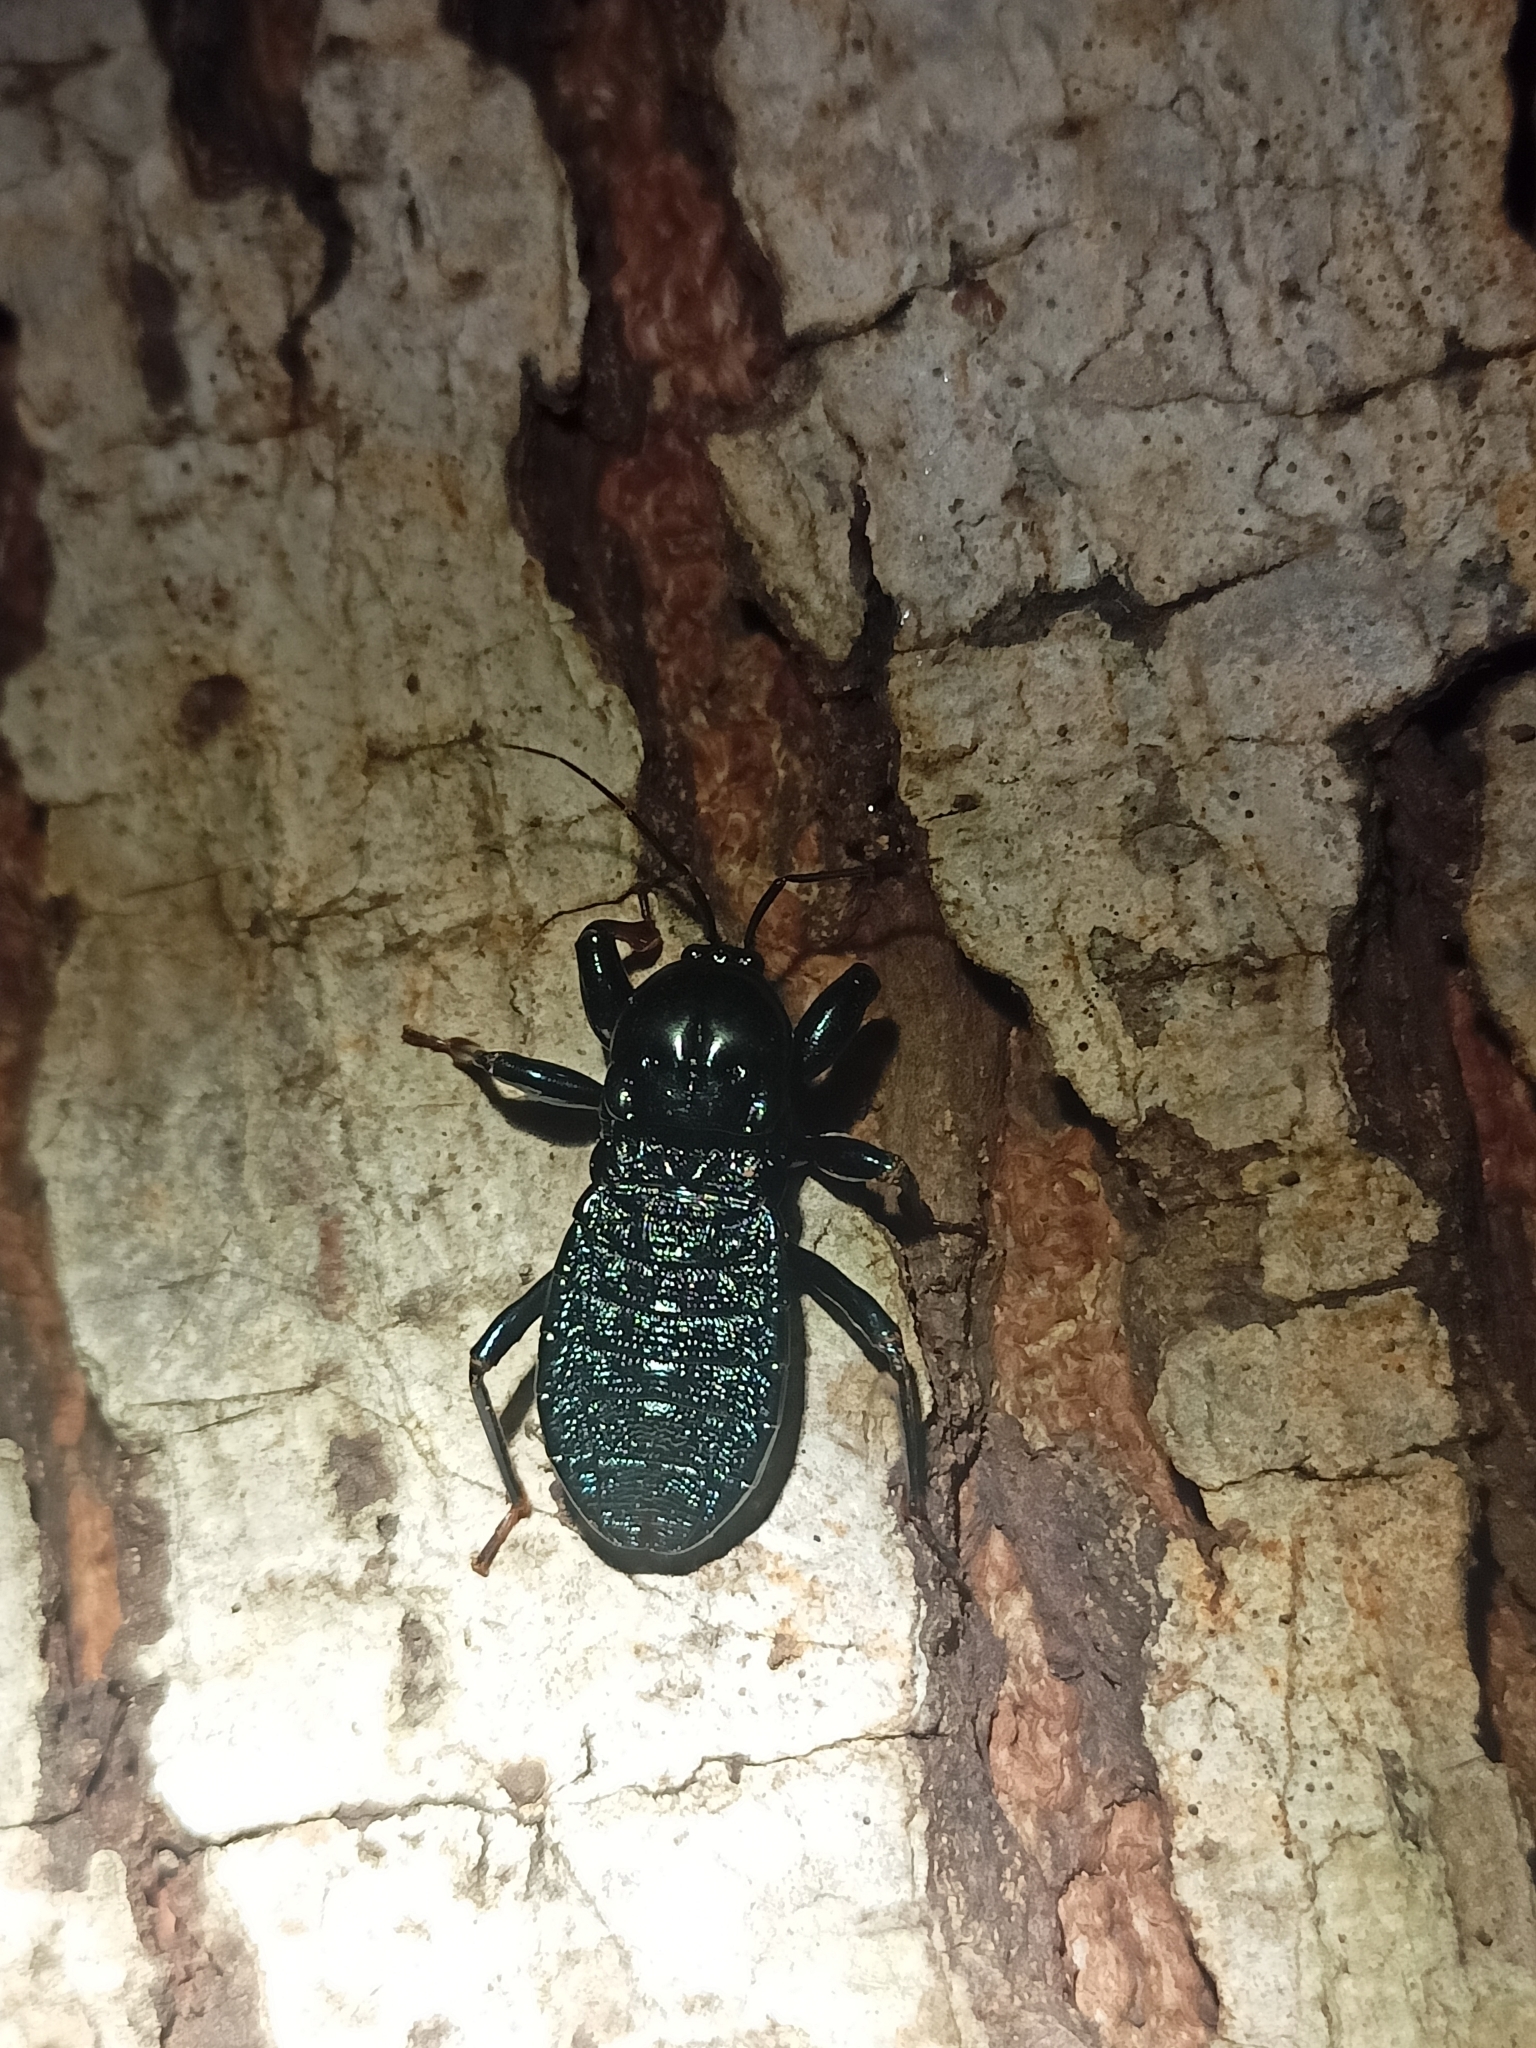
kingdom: Animalia
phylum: Arthropoda
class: Insecta
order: Hemiptera
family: Reduviidae
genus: Haematorrhophus
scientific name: Haematorrhophus nigroviolaceus
